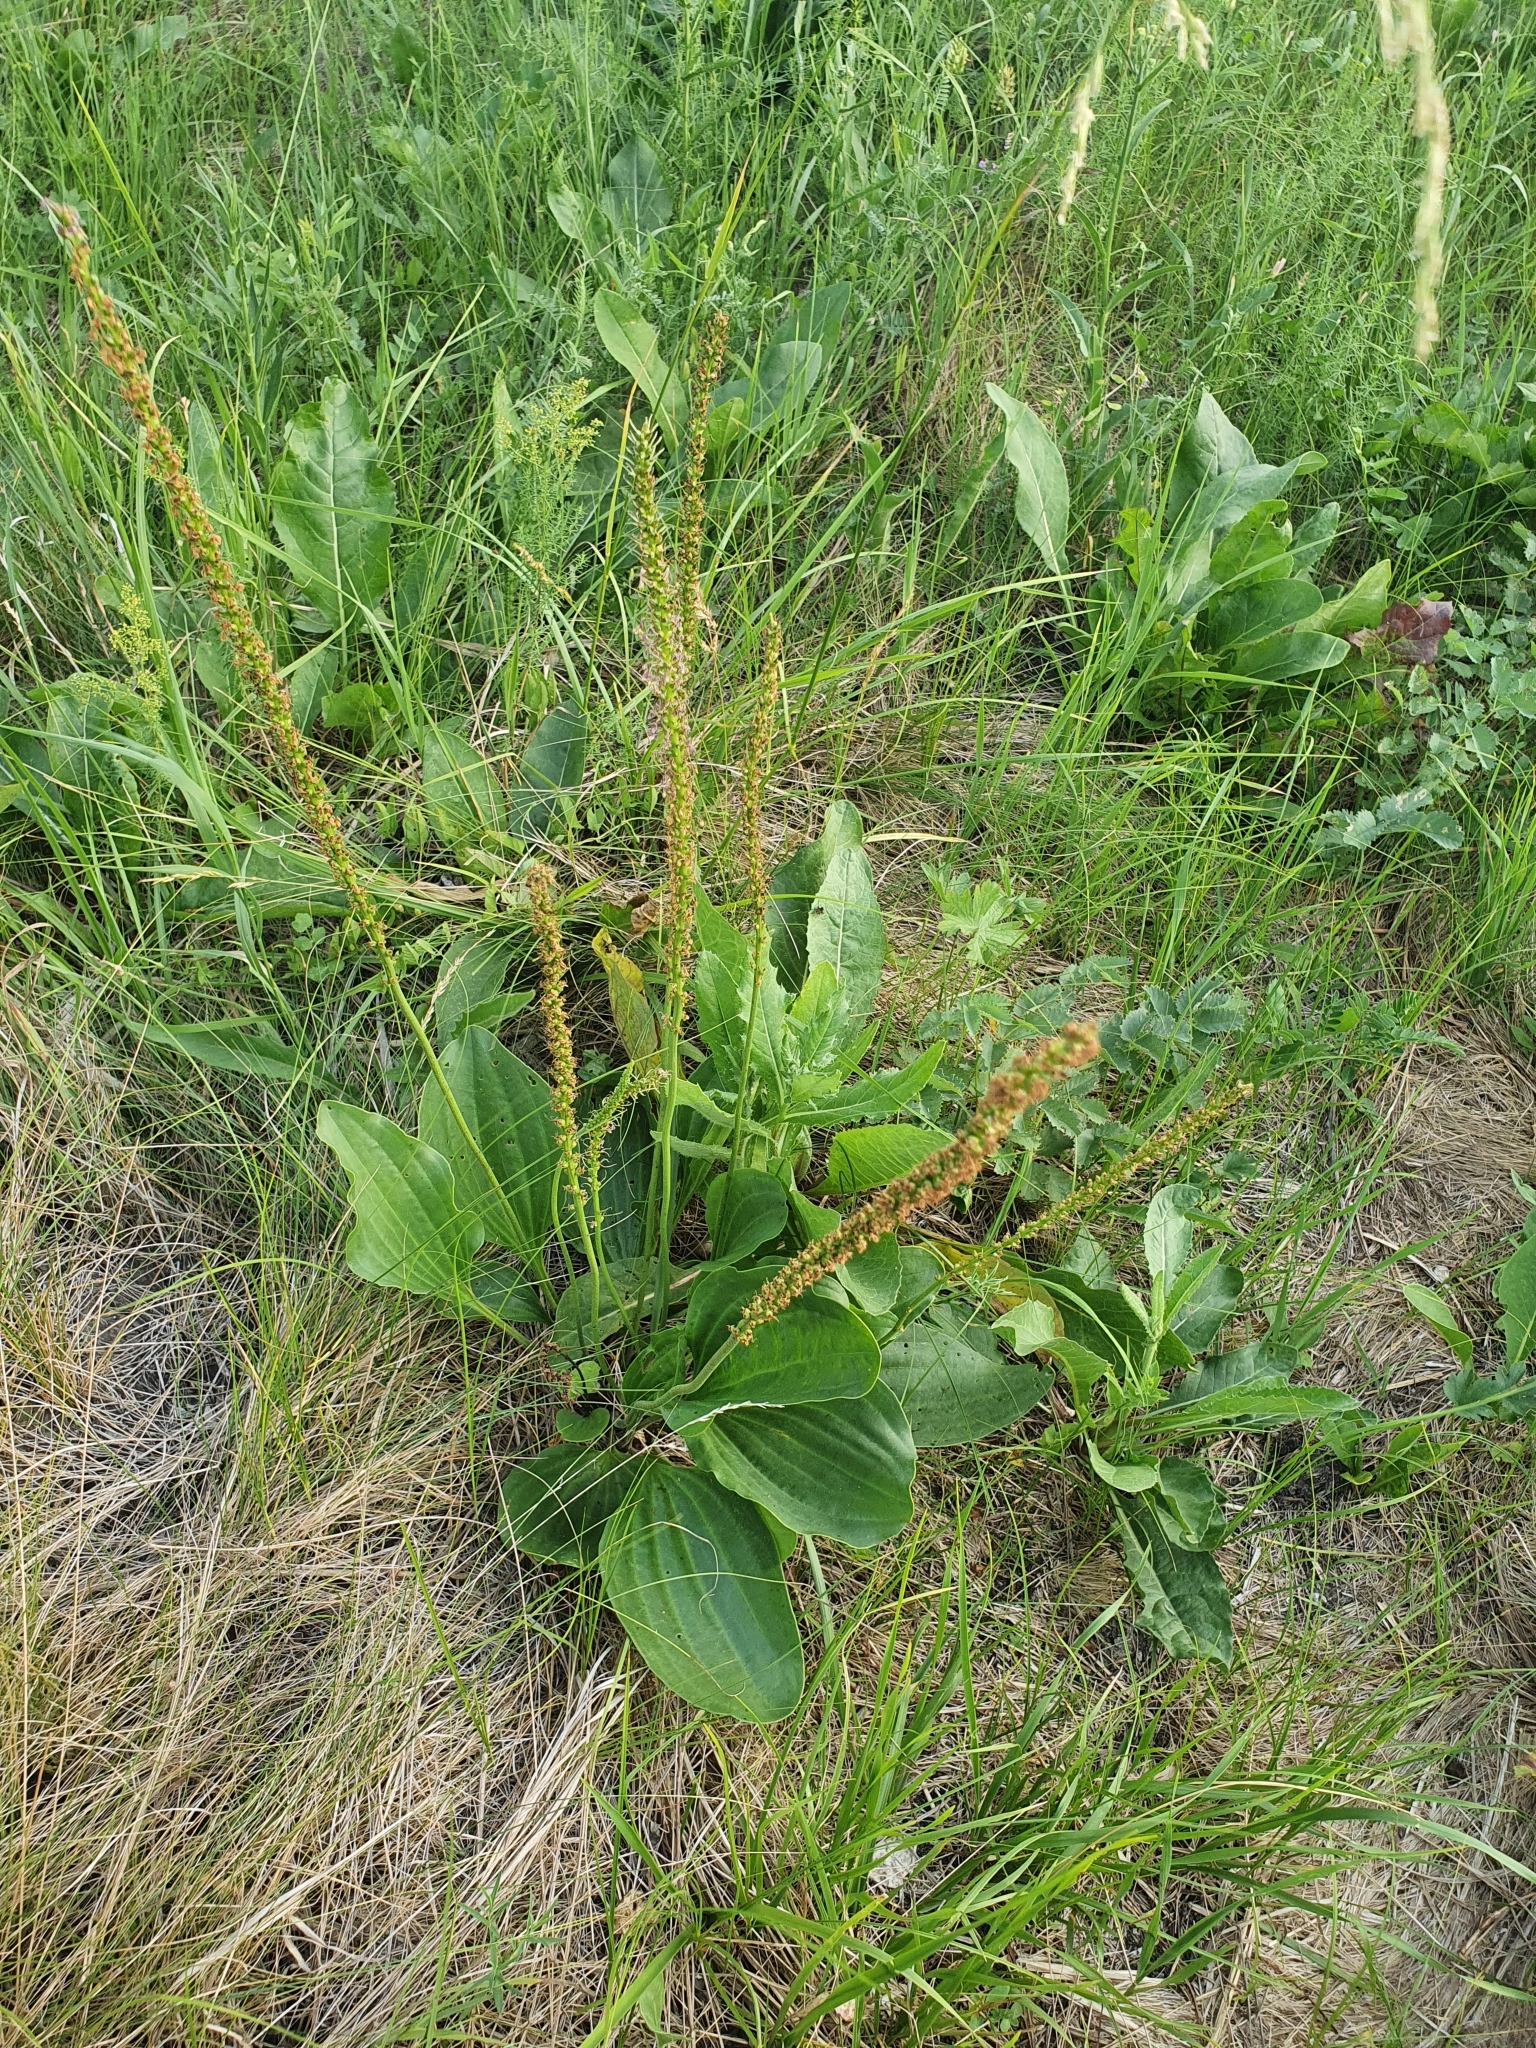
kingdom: Plantae
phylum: Tracheophyta
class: Magnoliopsida
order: Lamiales
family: Plantaginaceae
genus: Plantago
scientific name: Plantago cornuti
